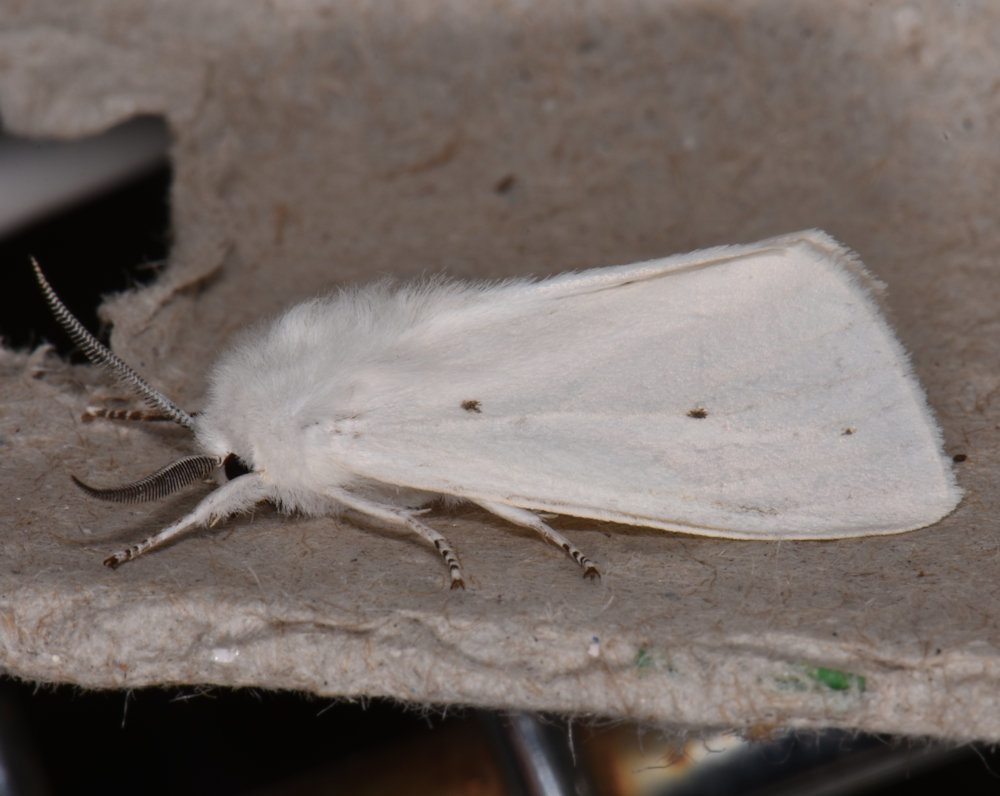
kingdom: Animalia
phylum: Arthropoda
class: Insecta
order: Lepidoptera
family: Erebidae
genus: Spilosoma
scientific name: Spilosoma virginica
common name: Virginia tiger moth
